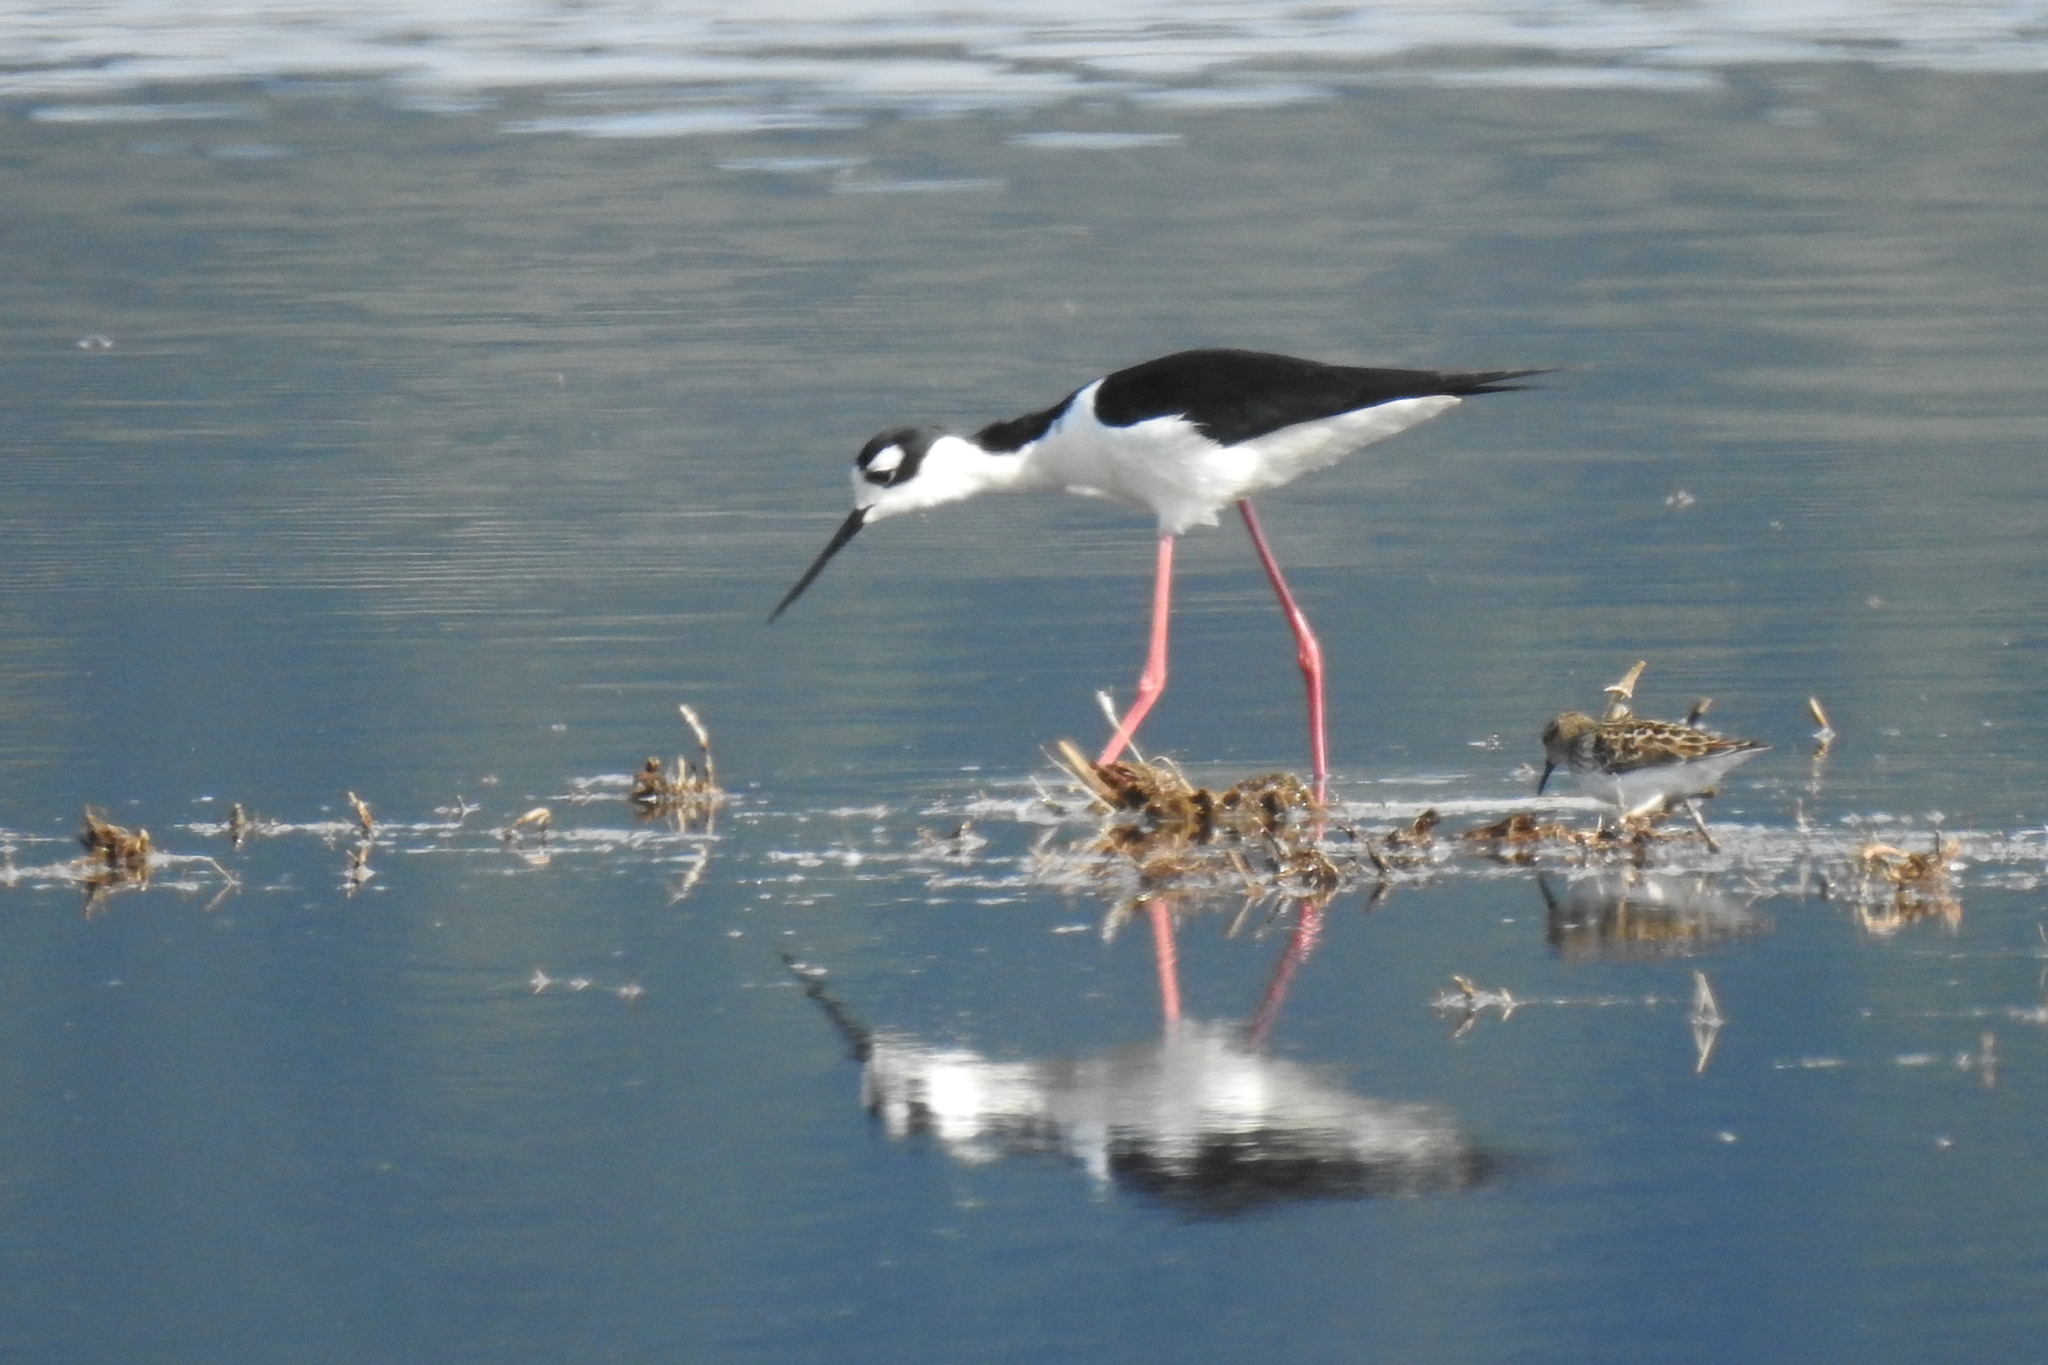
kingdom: Animalia
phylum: Chordata
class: Aves
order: Charadriiformes
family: Recurvirostridae
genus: Himantopus
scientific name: Himantopus mexicanus
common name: Black-necked stilt
